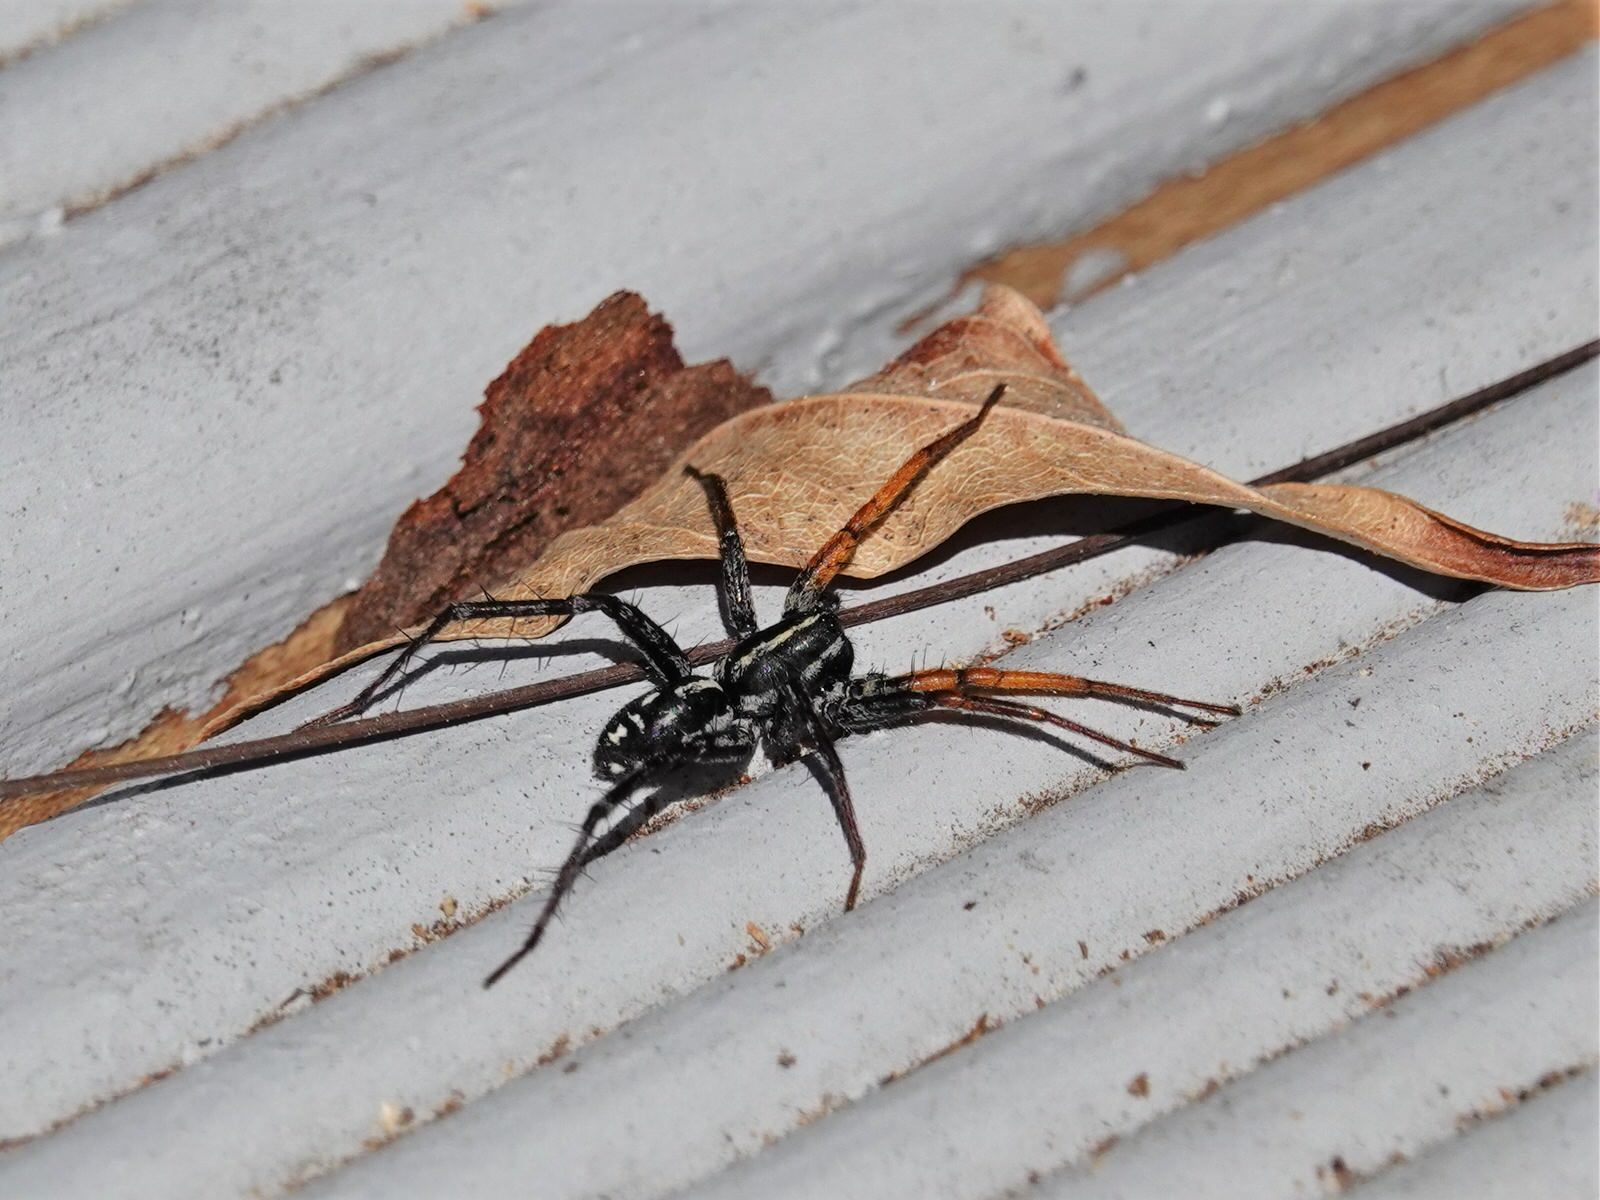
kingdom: Animalia
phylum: Arthropoda
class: Arachnida
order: Araneae
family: Corinnidae
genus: Nyssus
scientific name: Nyssus coloripes
